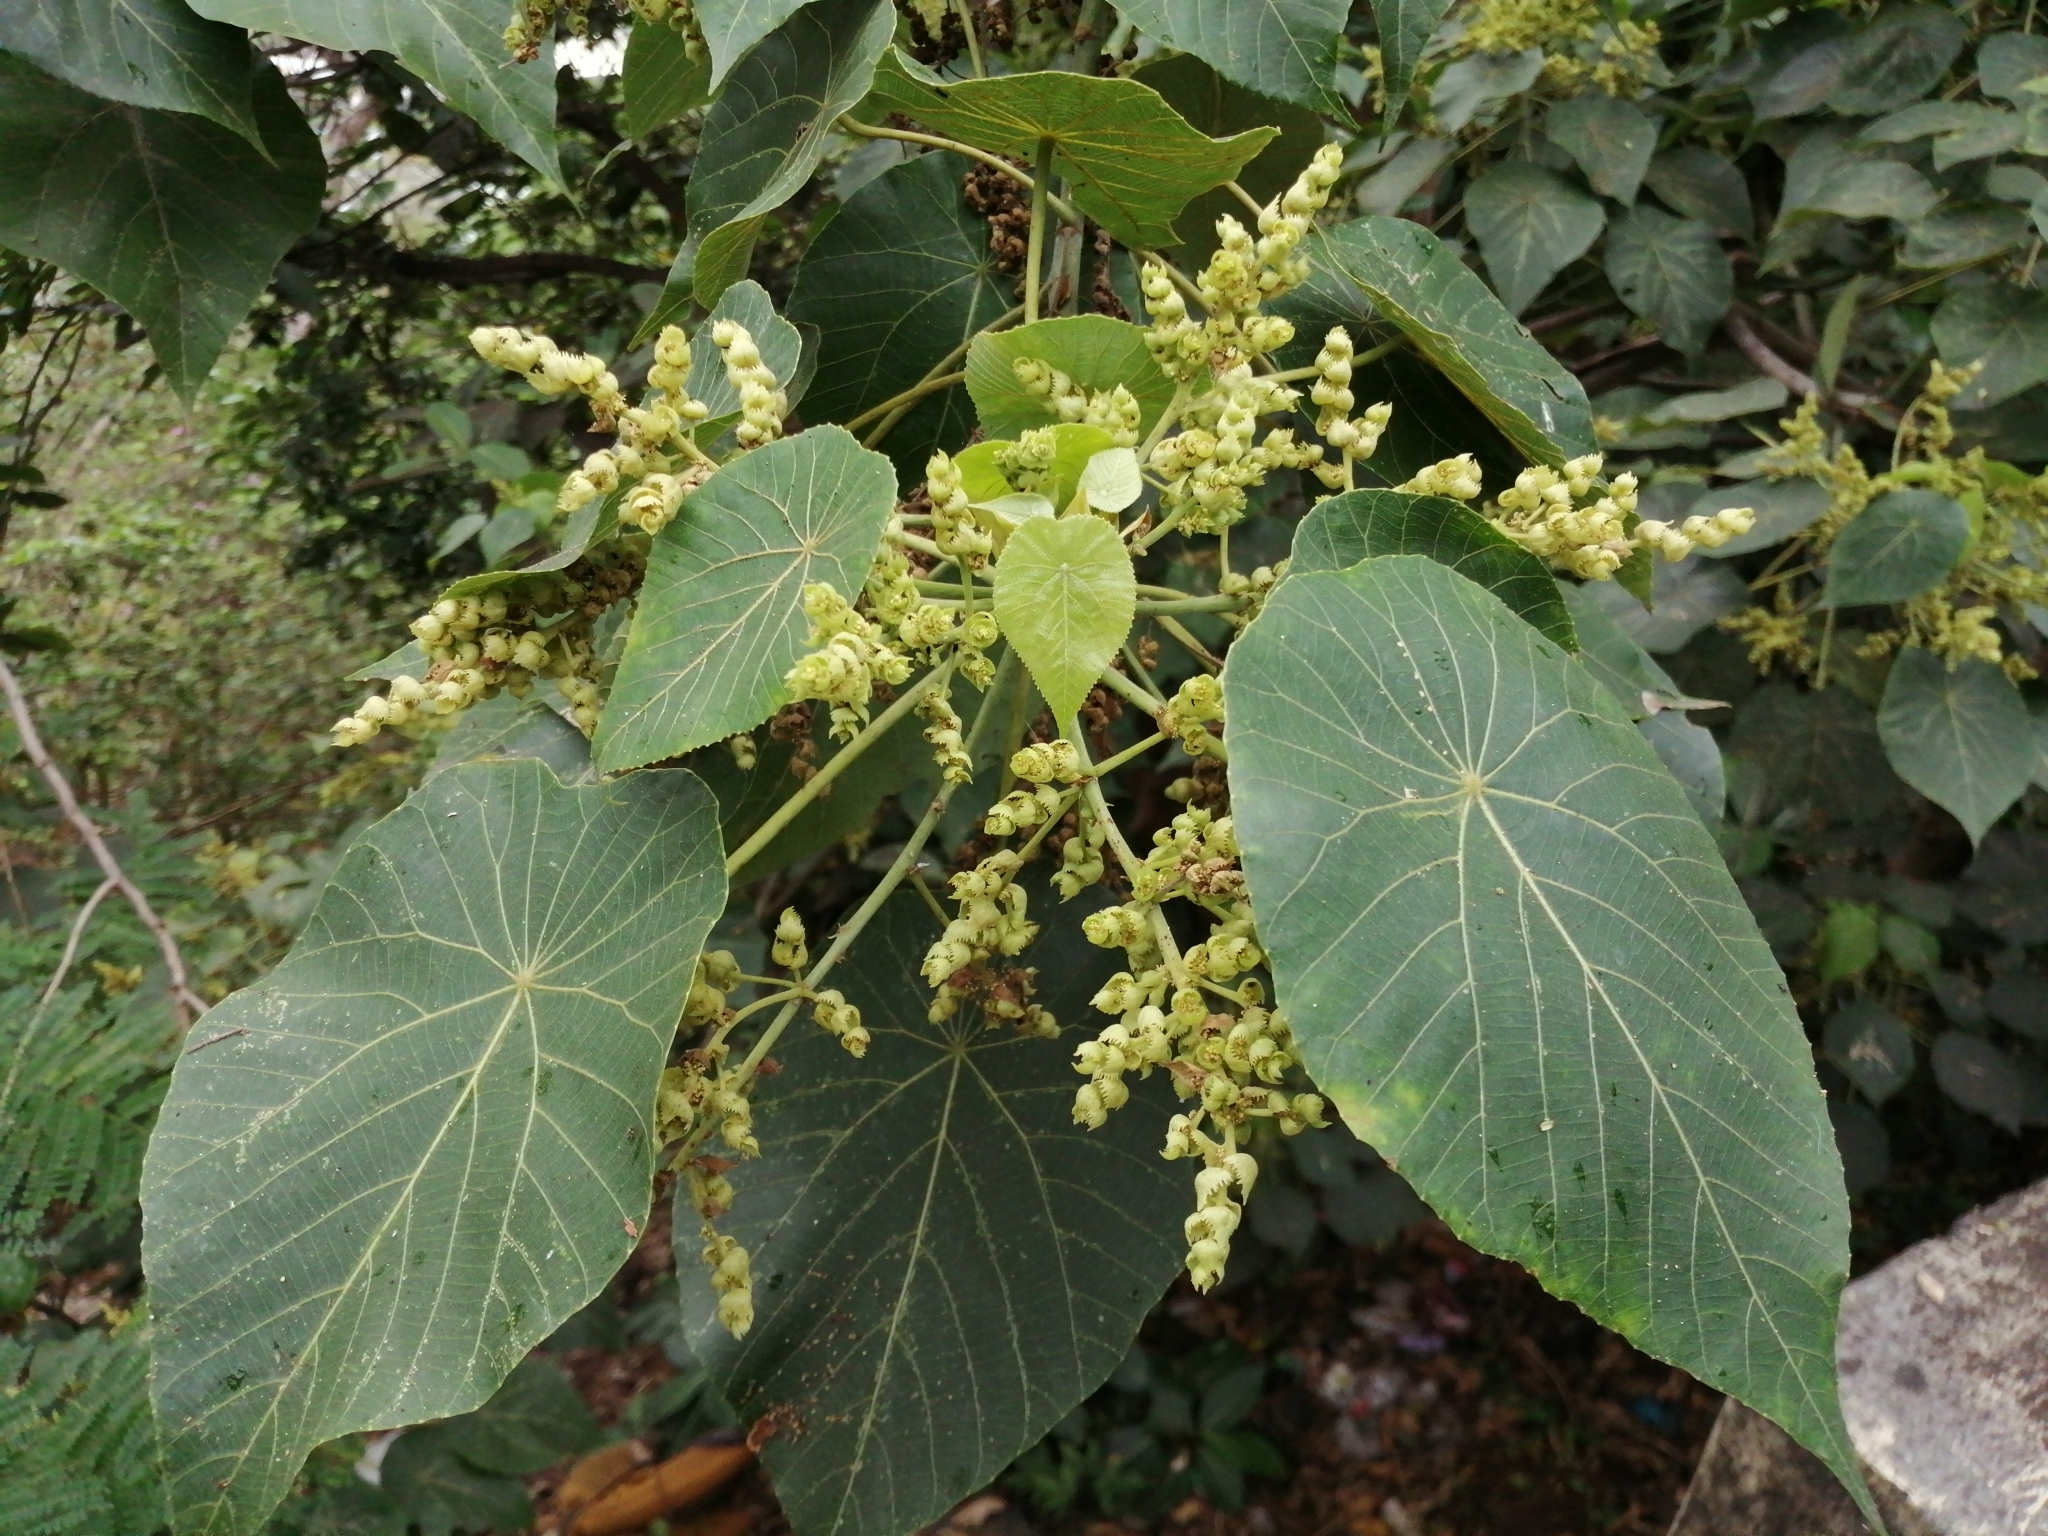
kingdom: Plantae
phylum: Tracheophyta
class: Magnoliopsida
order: Malpighiales
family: Euphorbiaceae
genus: Macaranga
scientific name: Macaranga tanarius
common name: Parasol leaf tree
